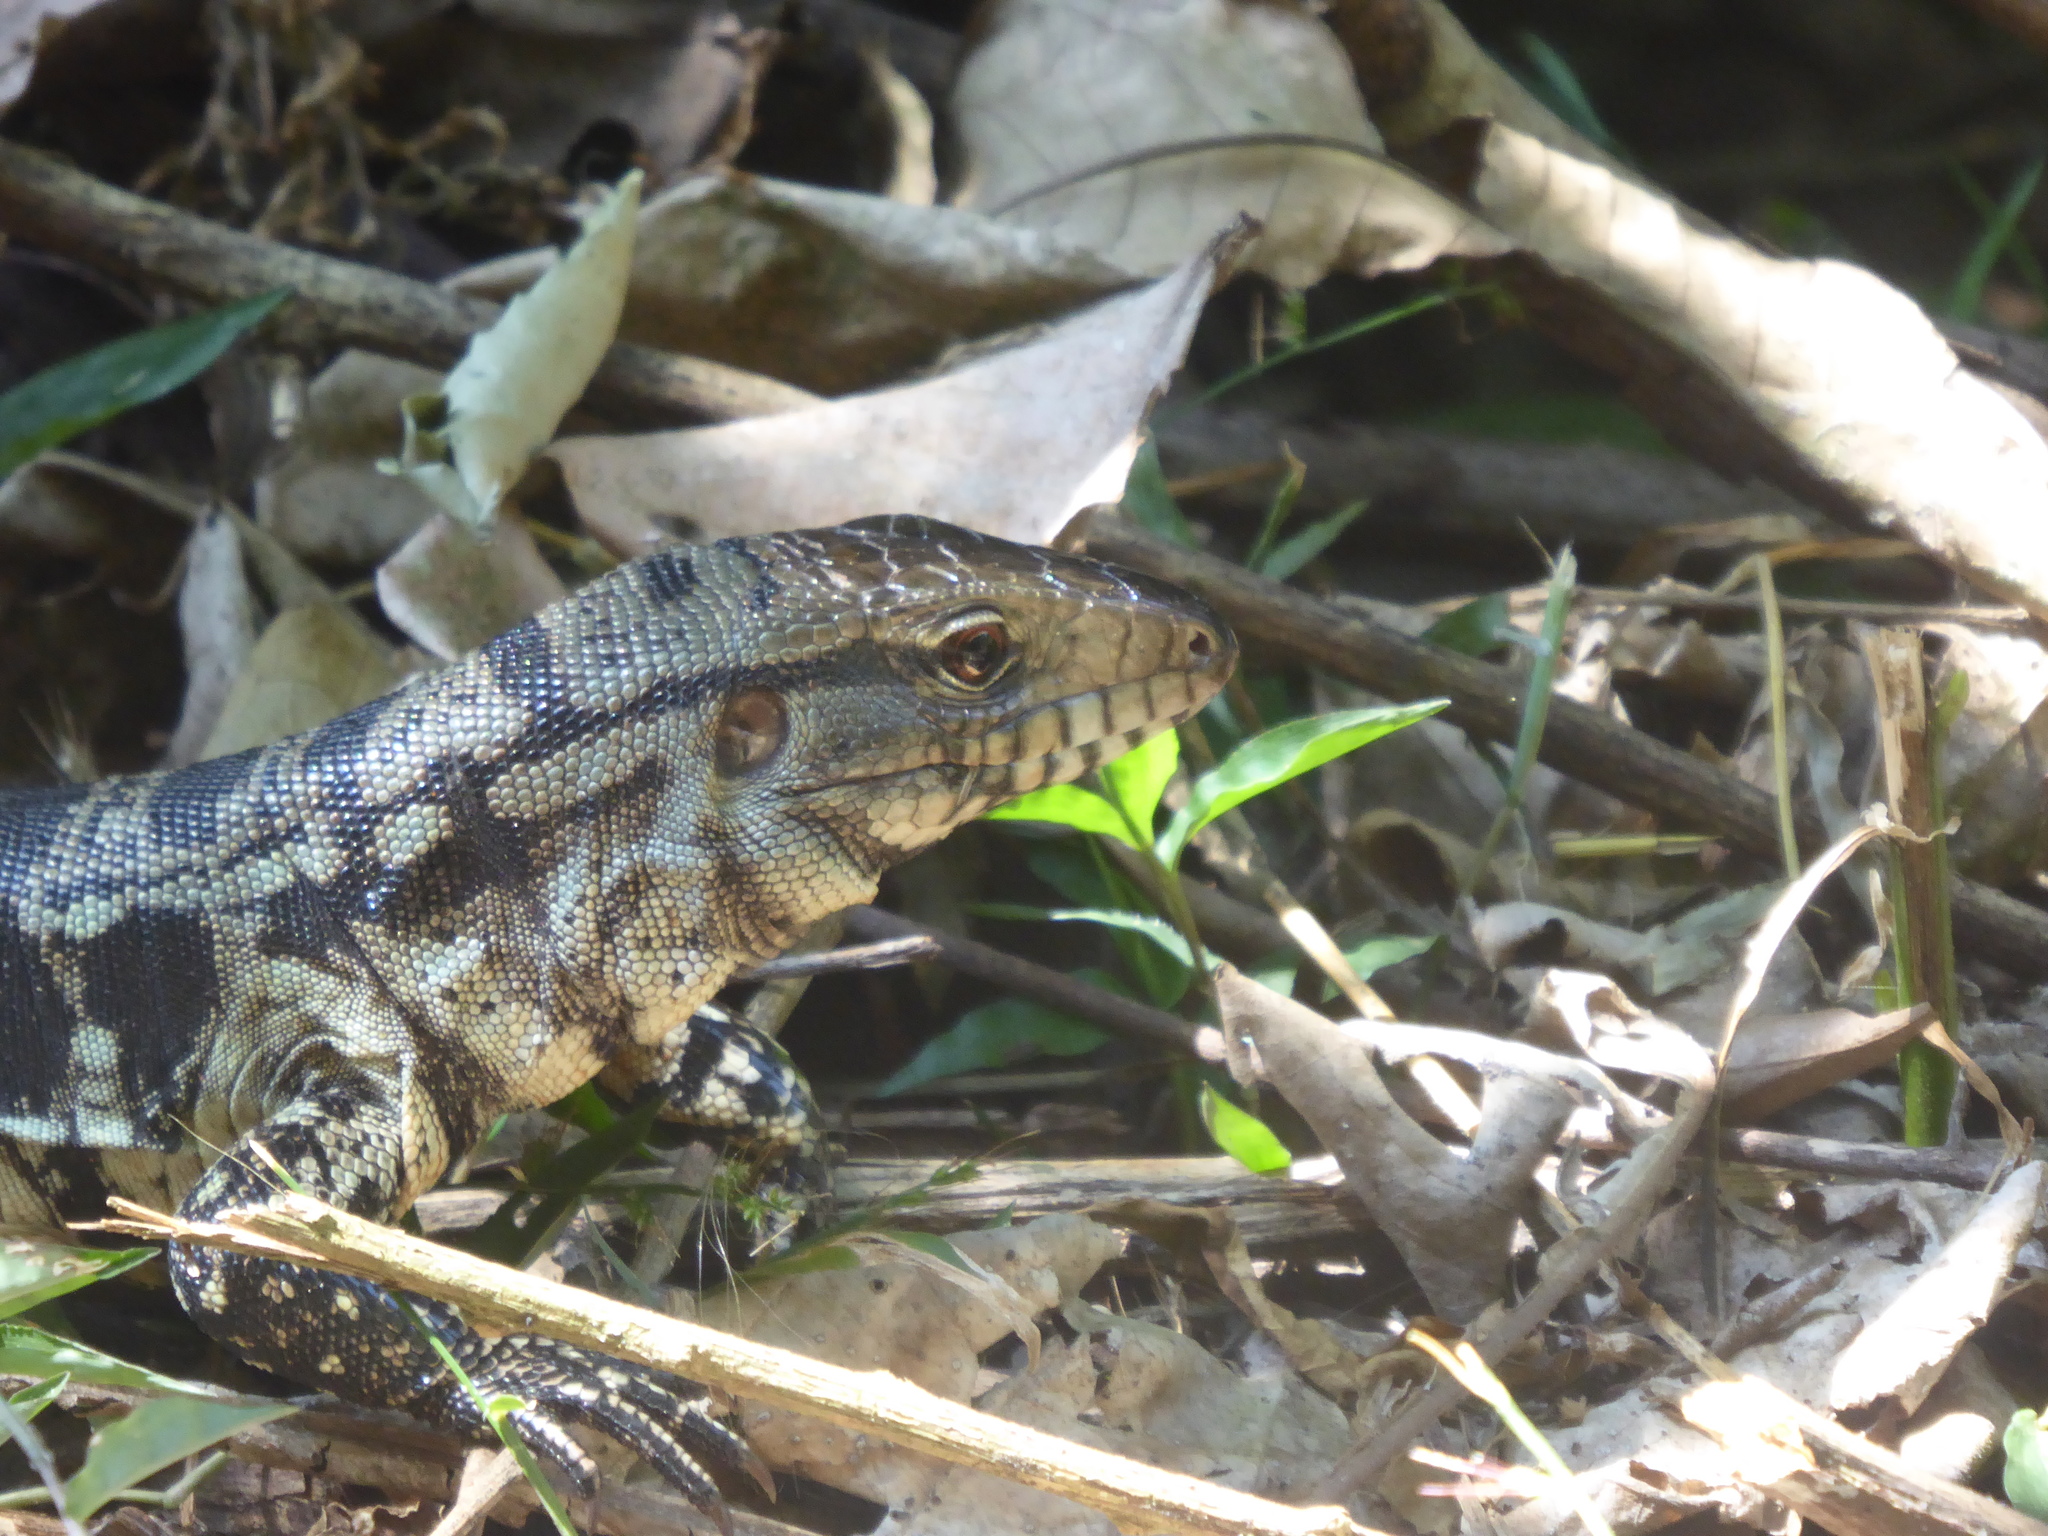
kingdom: Animalia
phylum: Chordata
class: Squamata
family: Teiidae
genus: Salvator
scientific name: Salvator merianae
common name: Argentine black and white tegu
